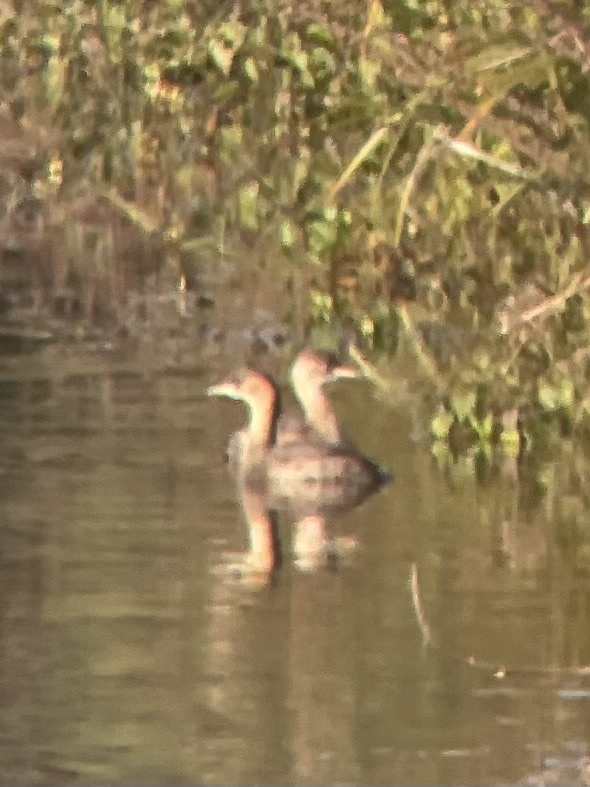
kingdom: Animalia
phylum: Chordata
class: Aves
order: Podicipediformes
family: Podicipedidae
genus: Tachybaptus
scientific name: Tachybaptus ruficollis
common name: Little grebe
